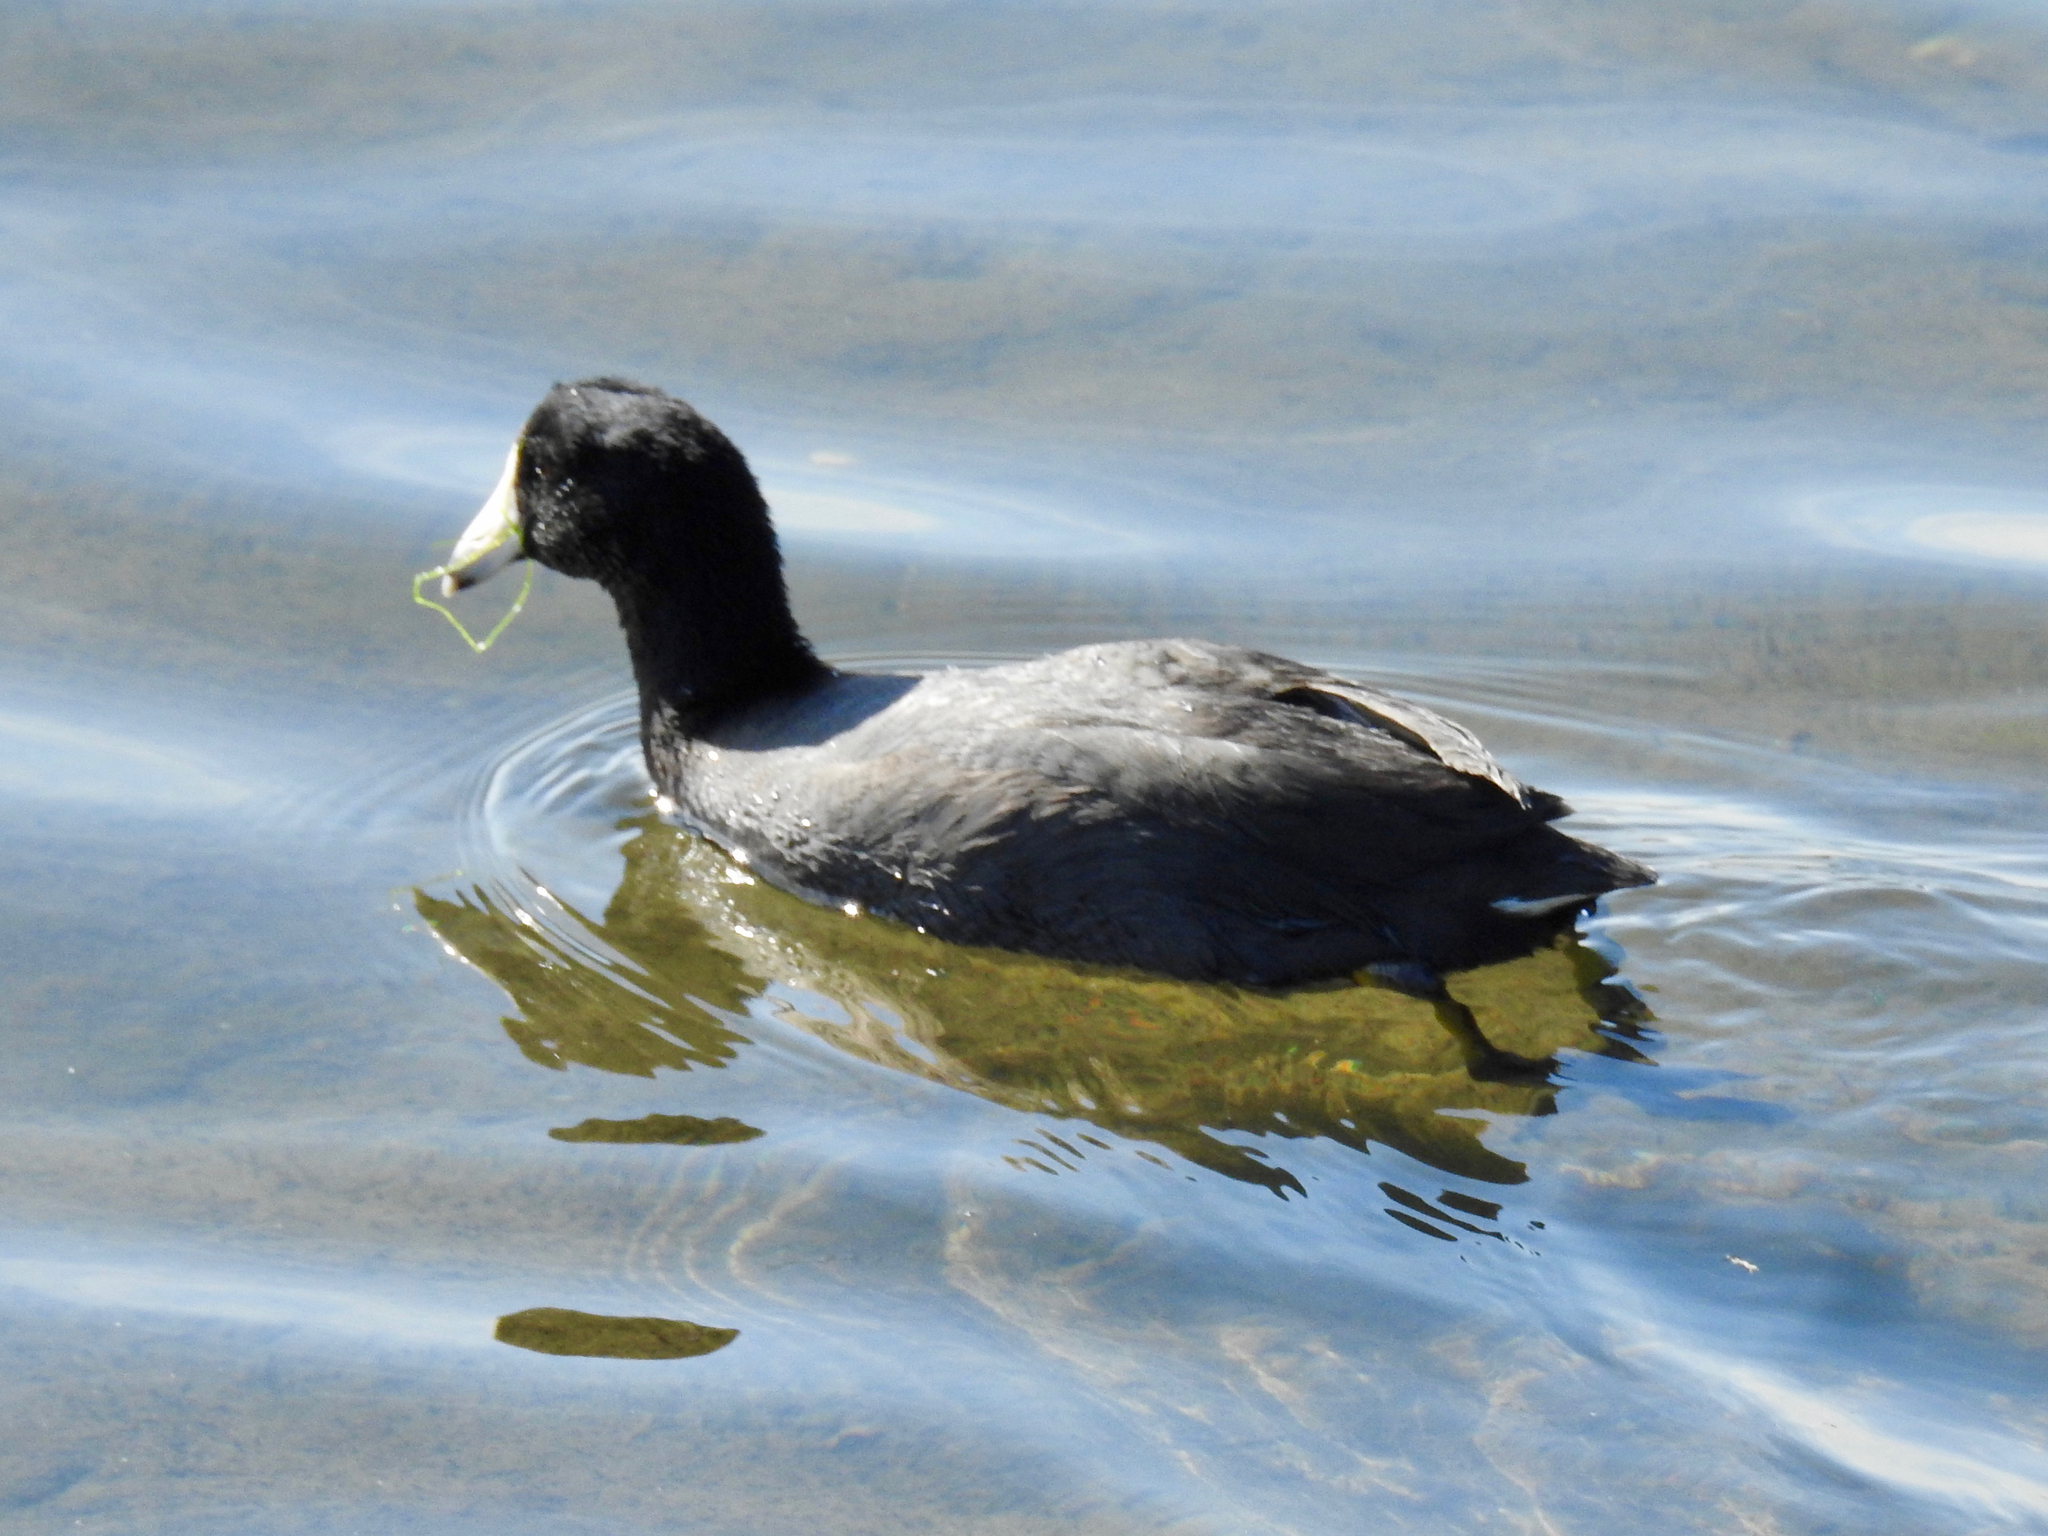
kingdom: Animalia
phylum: Chordata
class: Aves
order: Gruiformes
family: Rallidae
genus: Fulica
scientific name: Fulica americana
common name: American coot
